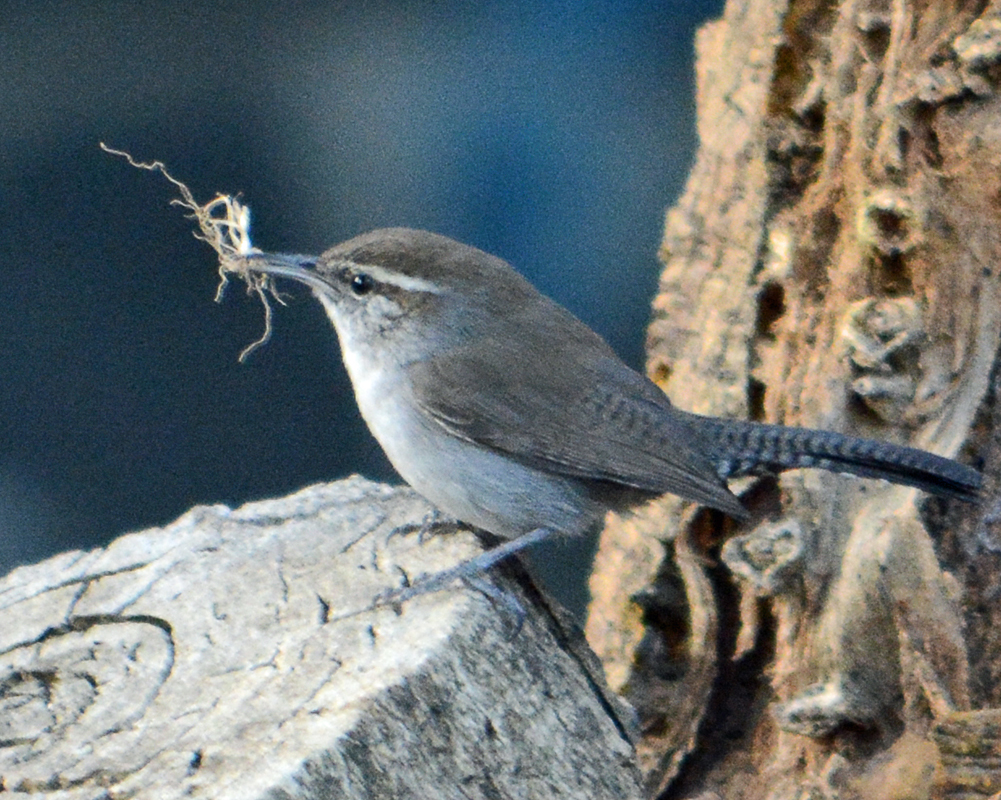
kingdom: Animalia
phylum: Chordata
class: Aves
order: Passeriformes
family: Troglodytidae
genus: Thryomanes
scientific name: Thryomanes bewickii
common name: Bewick's wren
